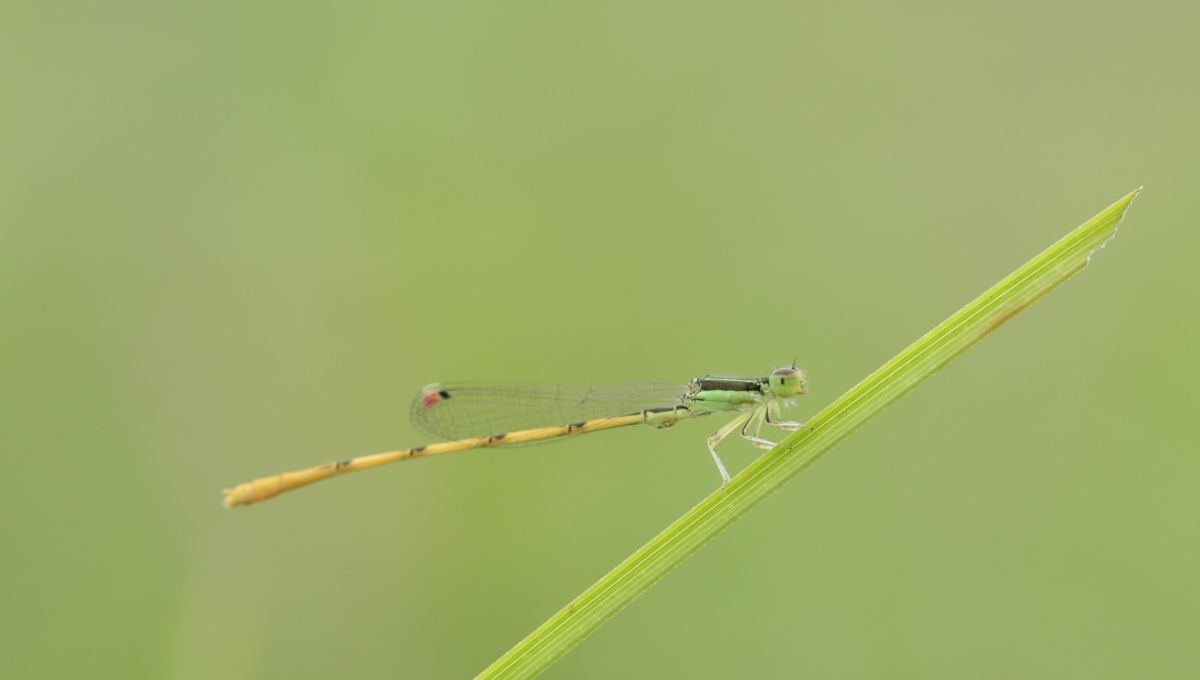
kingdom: Animalia
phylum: Arthropoda
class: Insecta
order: Odonata
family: Coenagrionidae
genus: Ischnura
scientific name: Ischnura hastata
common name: Citrine forktail
